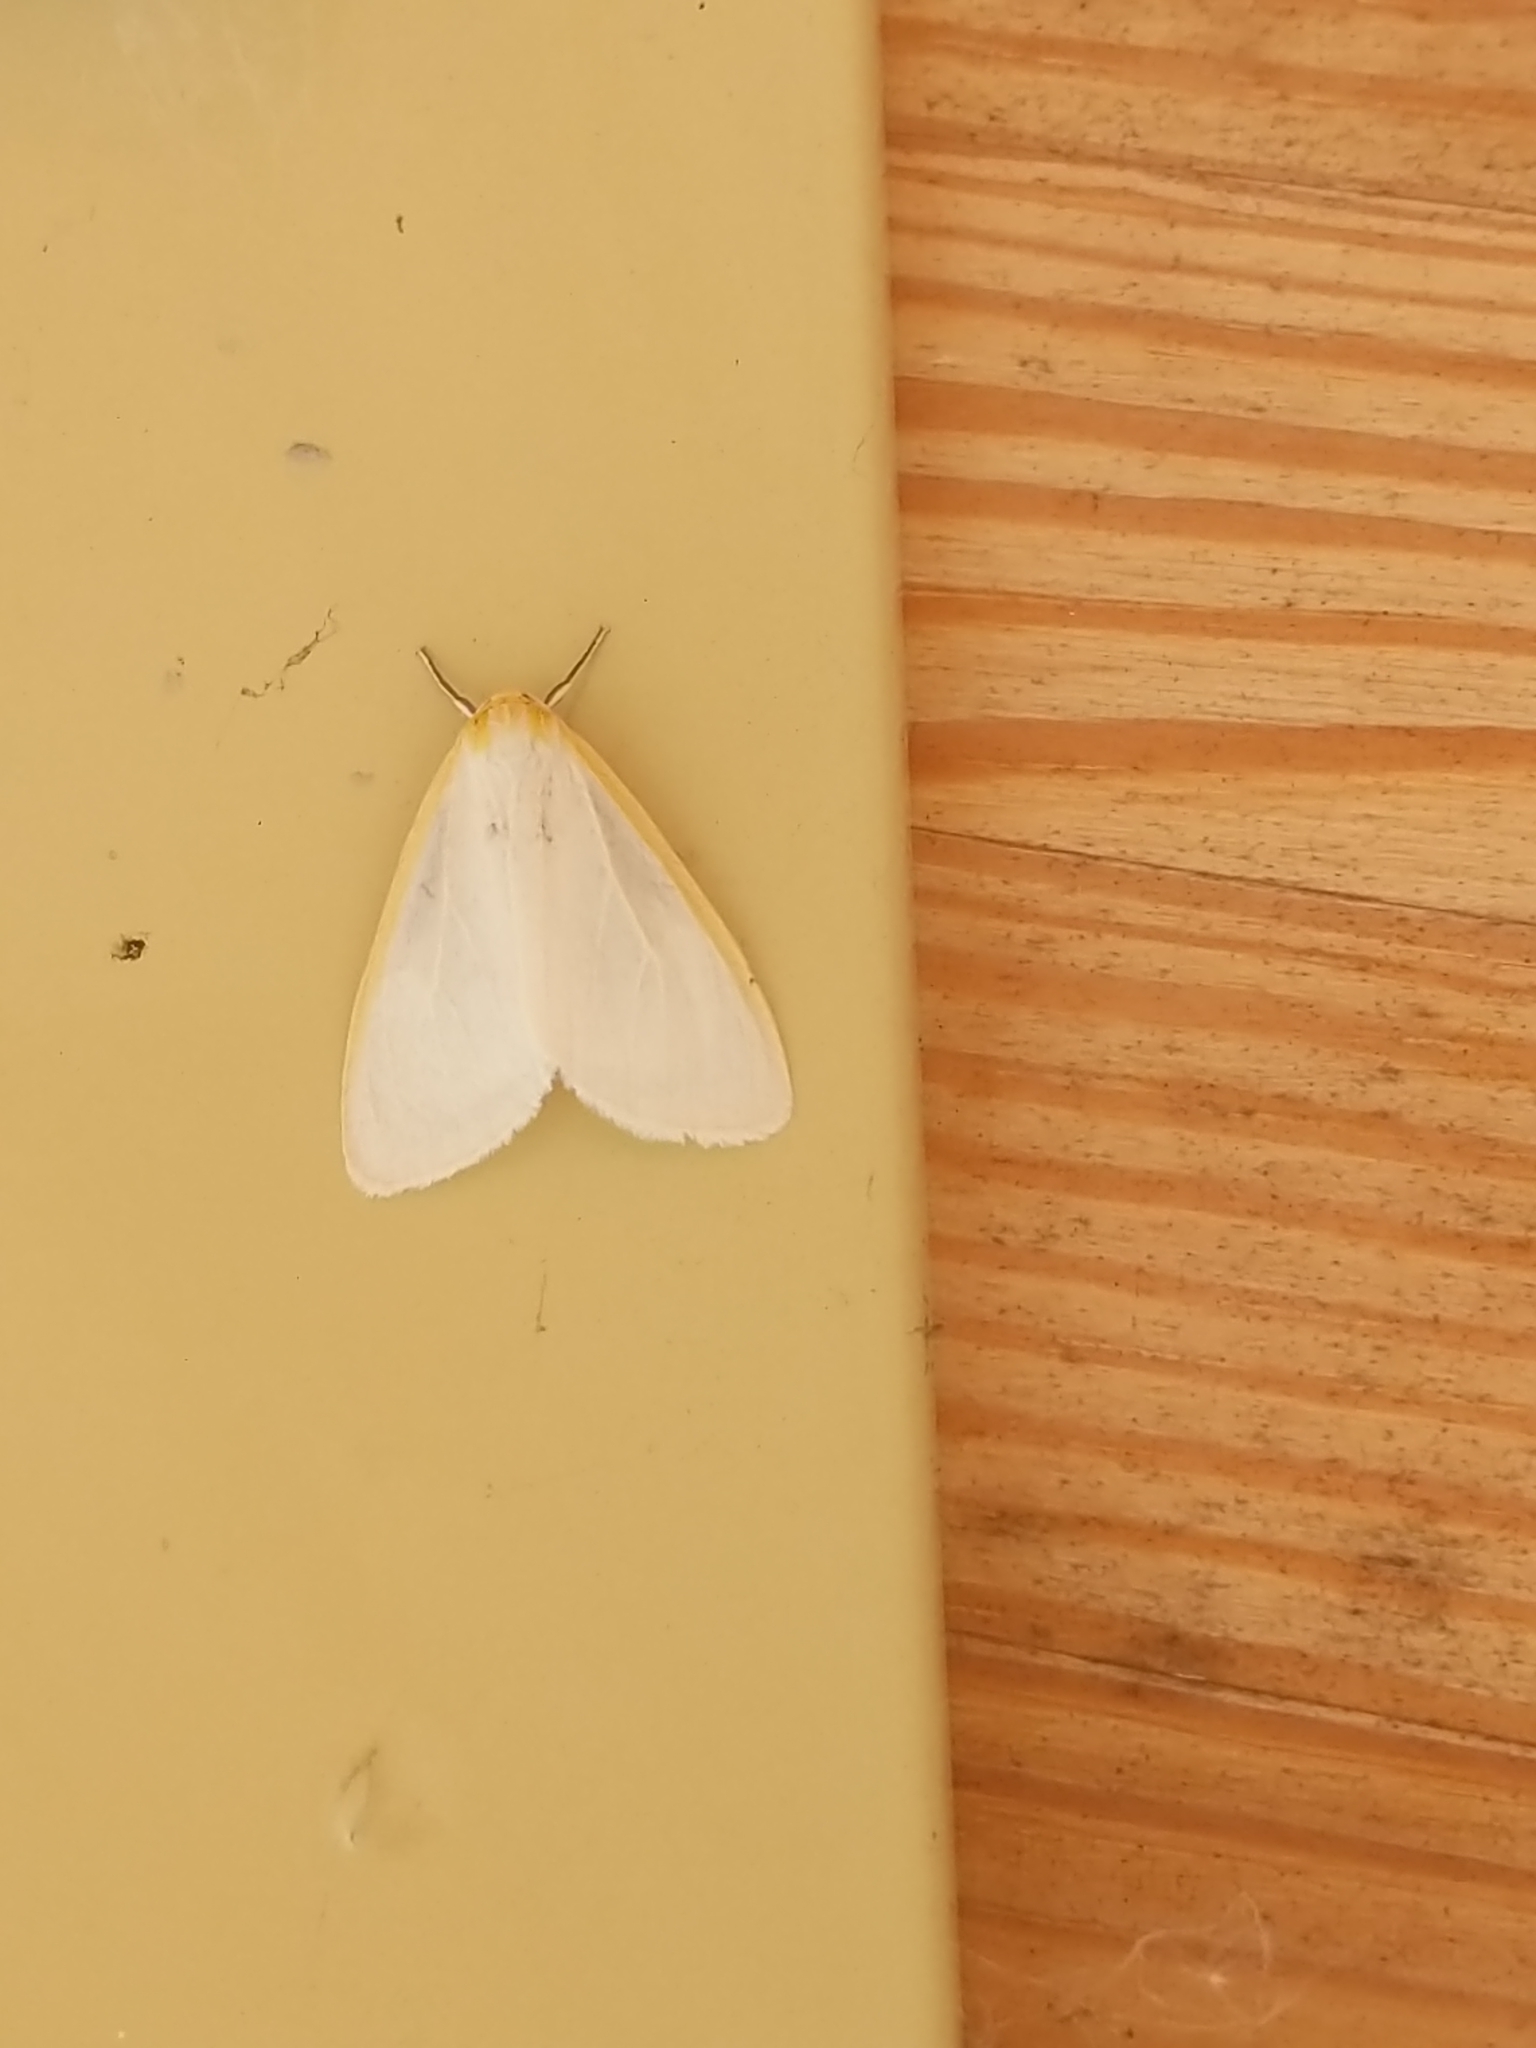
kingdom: Animalia
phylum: Arthropoda
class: Insecta
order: Lepidoptera
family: Erebidae
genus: Cycnia
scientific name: Cycnia tenera
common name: Delicate cycnia moth
